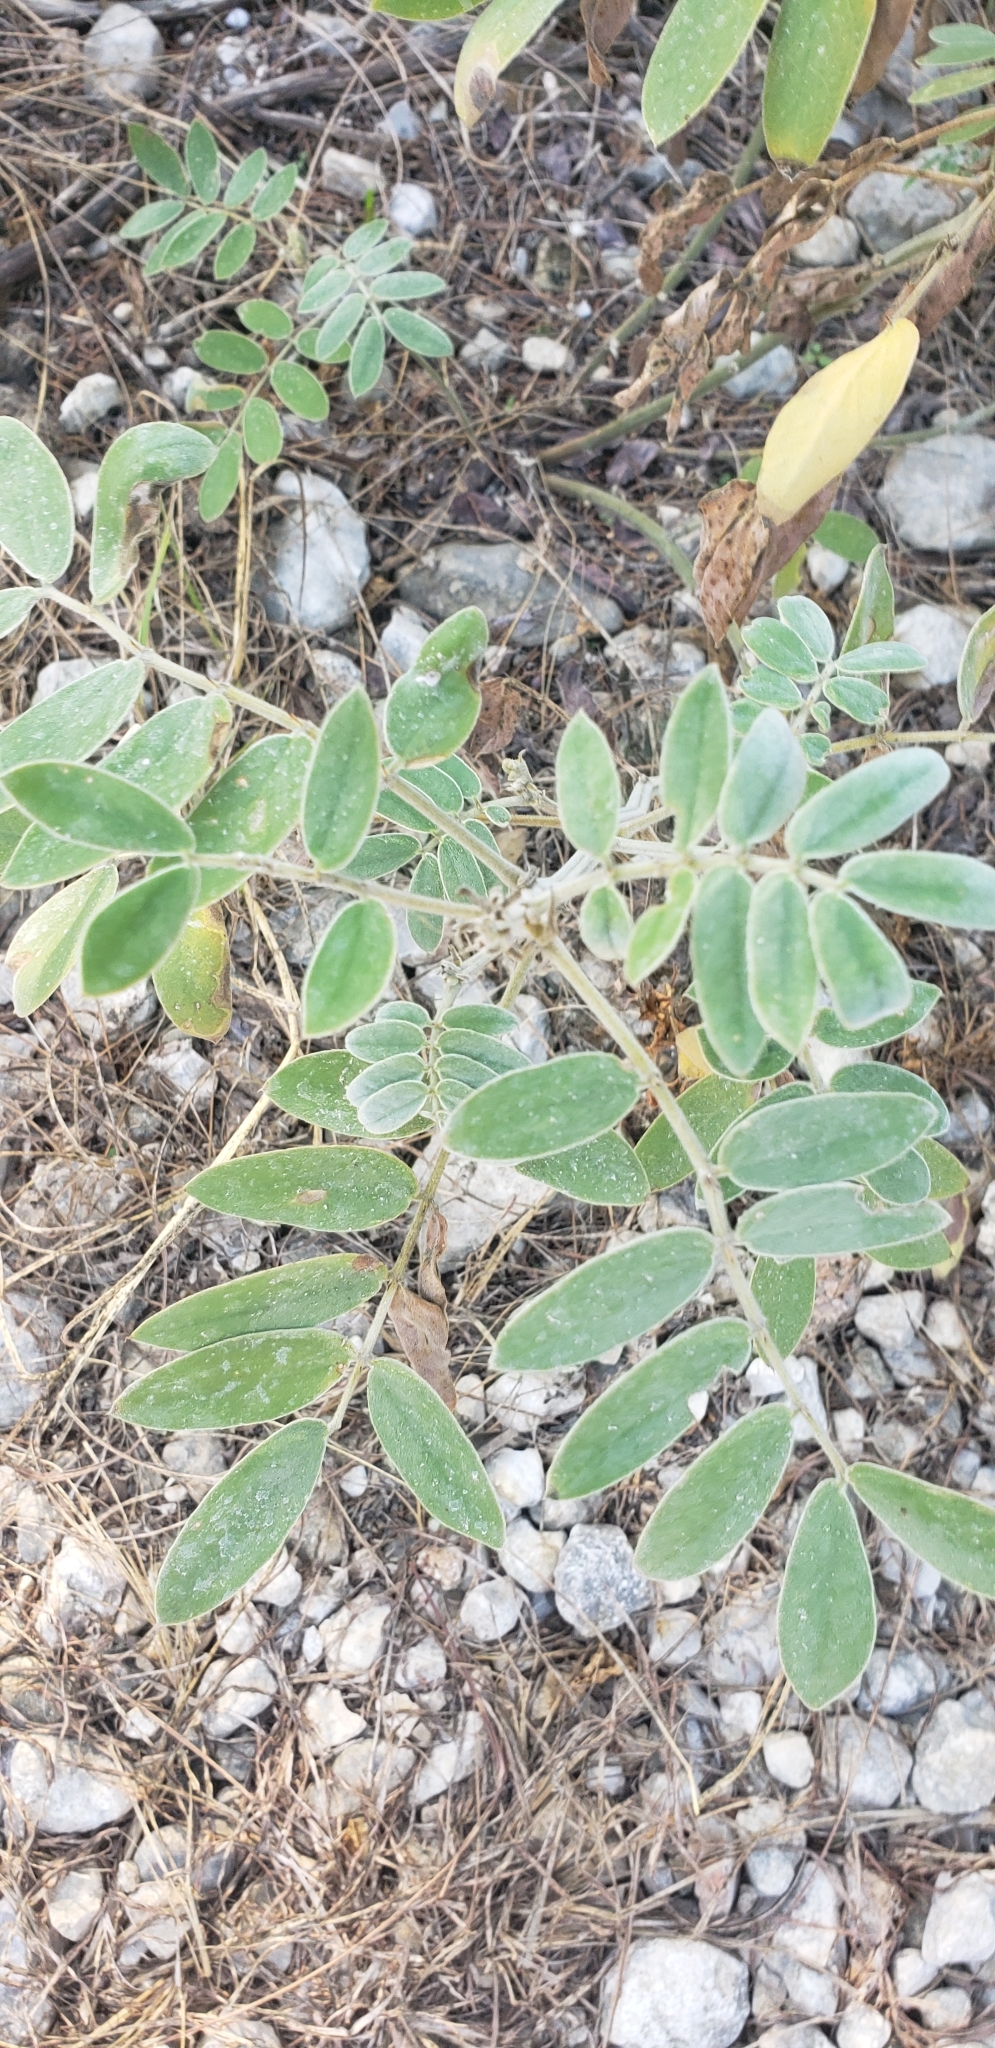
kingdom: Plantae
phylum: Tracheophyta
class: Magnoliopsida
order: Fabales
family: Fabaceae
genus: Senna
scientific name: Senna lindheimeriana
